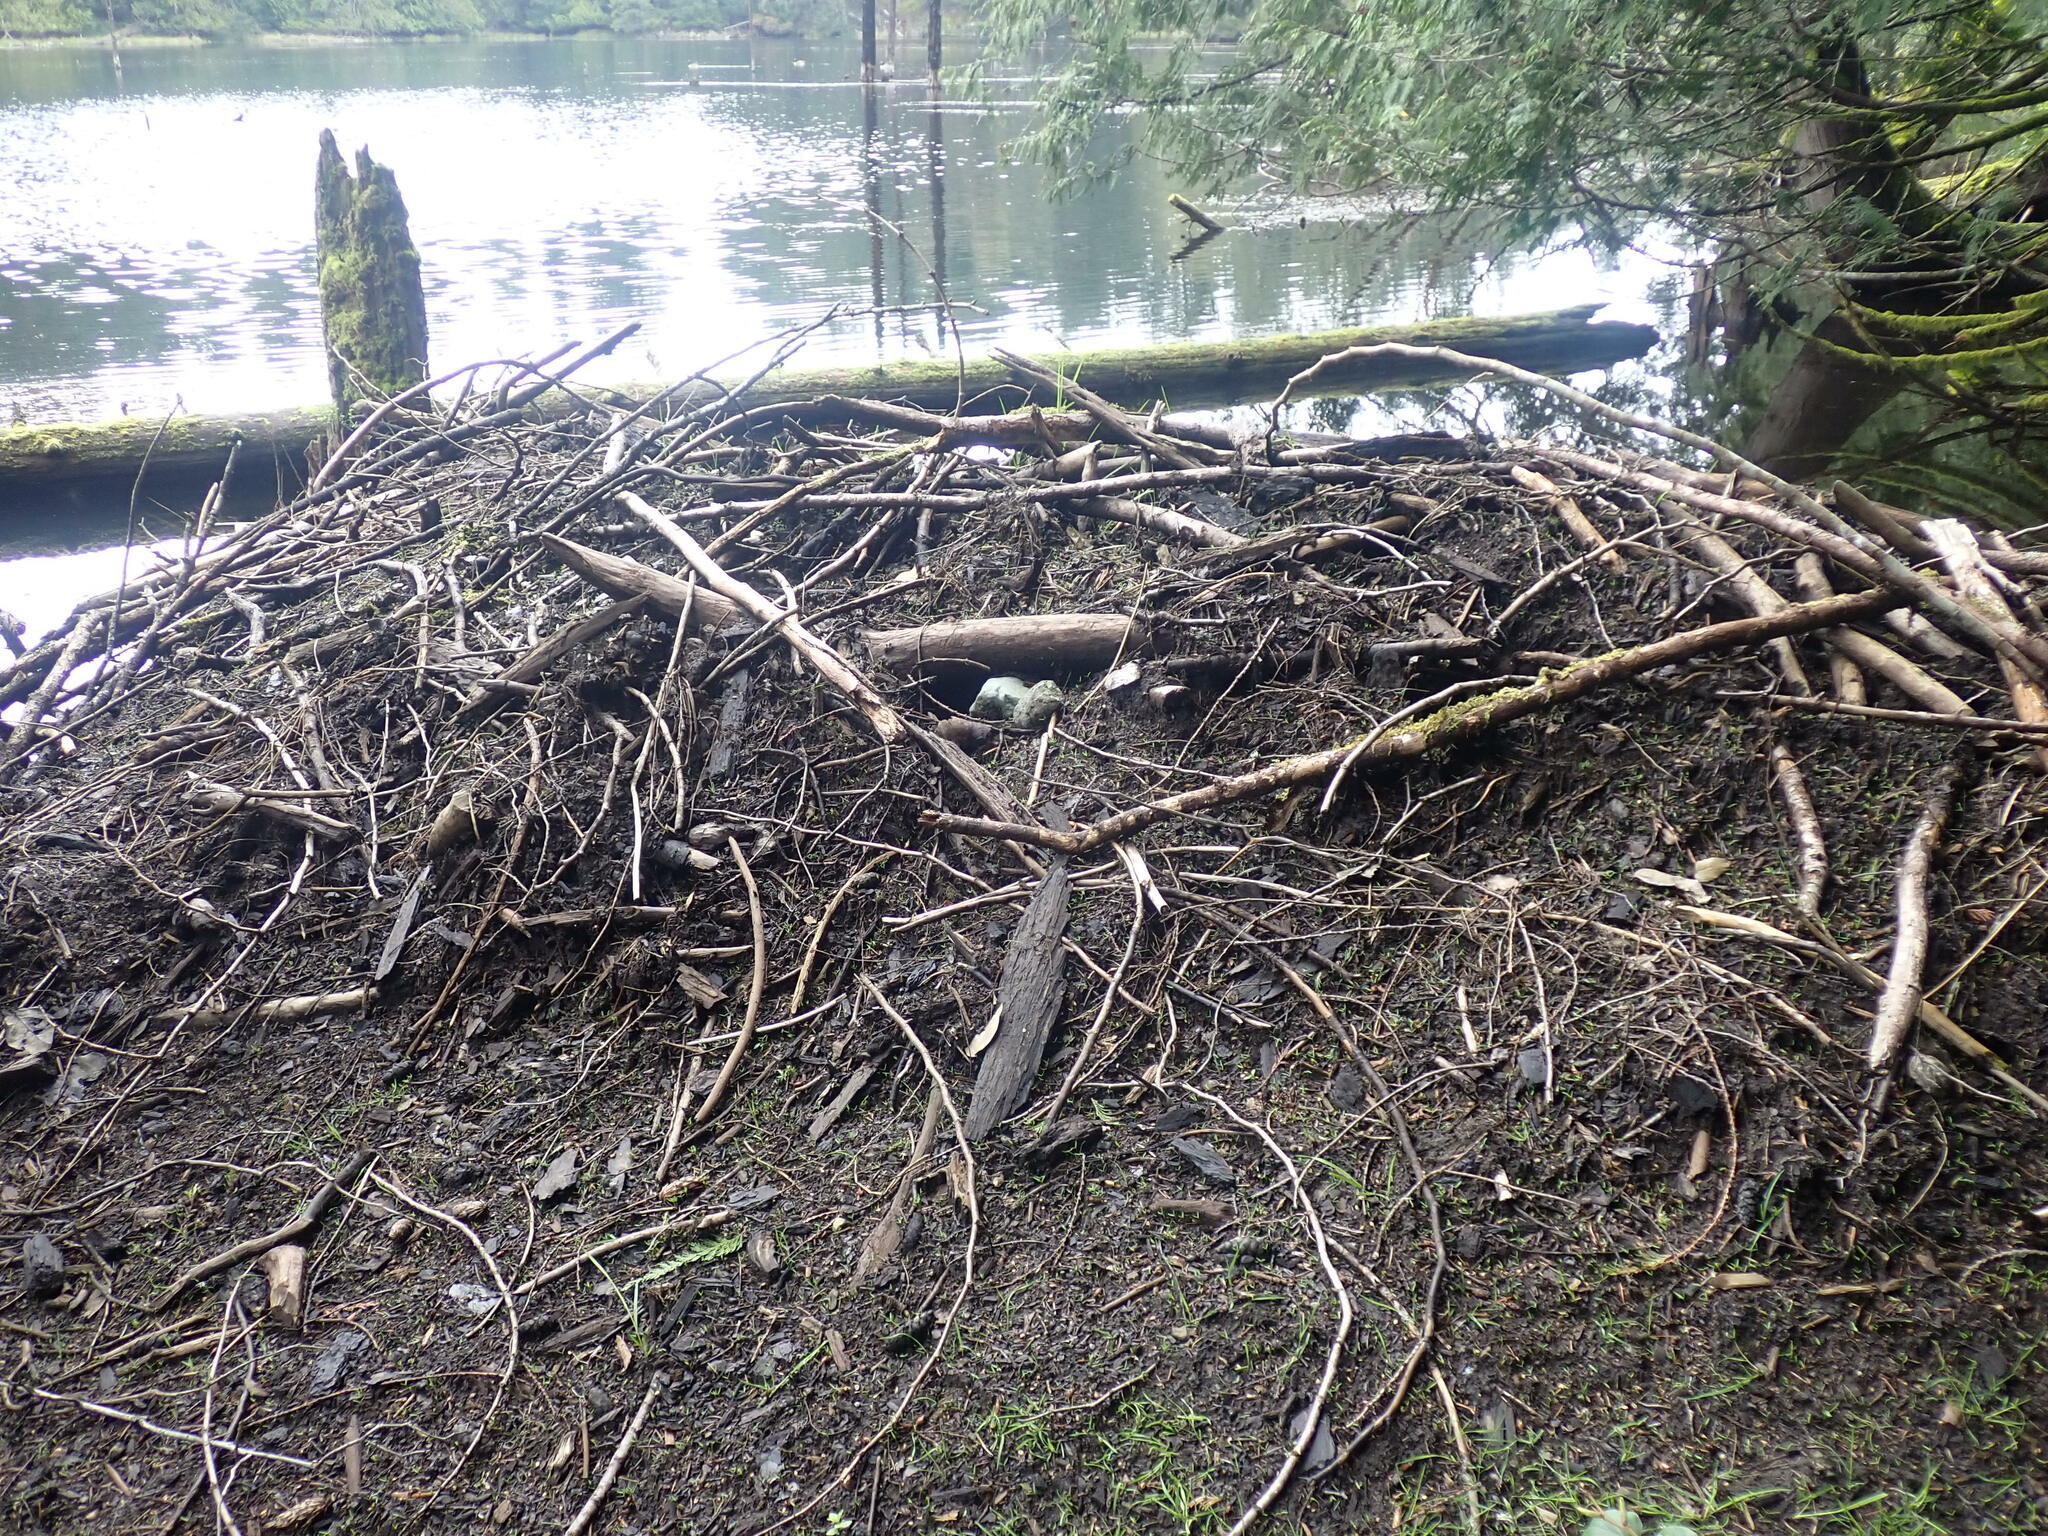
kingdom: Animalia
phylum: Chordata
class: Mammalia
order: Rodentia
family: Castoridae
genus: Castor
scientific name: Castor canadensis
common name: American beaver
